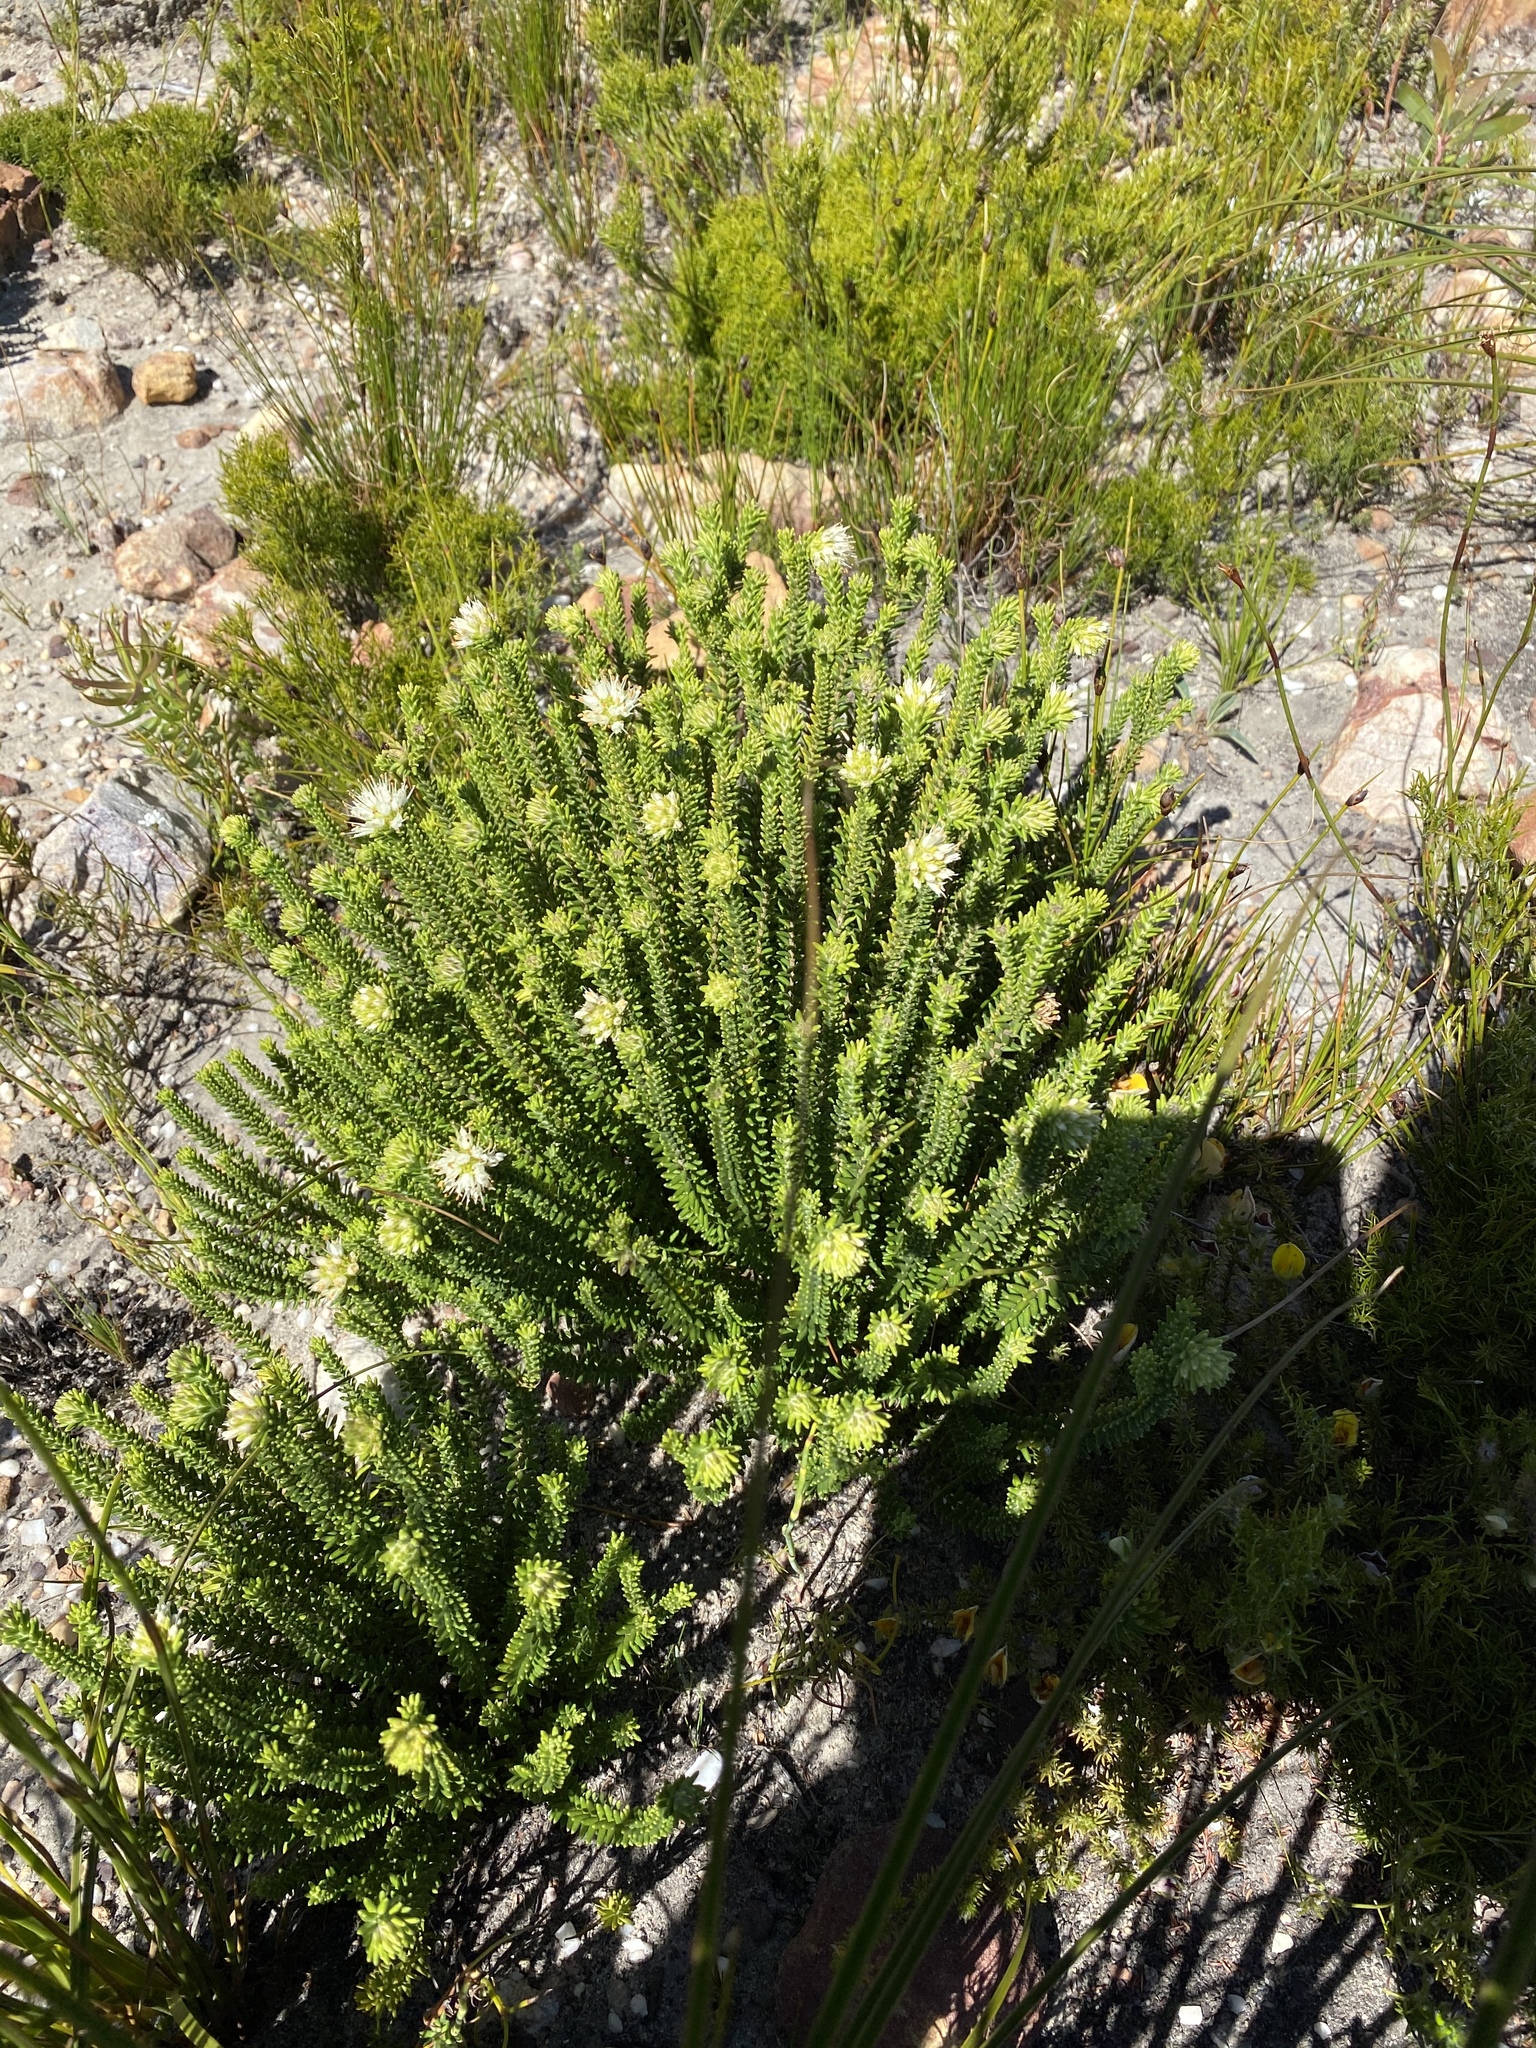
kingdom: Plantae
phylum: Tracheophyta
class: Magnoliopsida
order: Lamiales
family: Stilbaceae
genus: Campylostachys
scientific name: Campylostachys cernua
